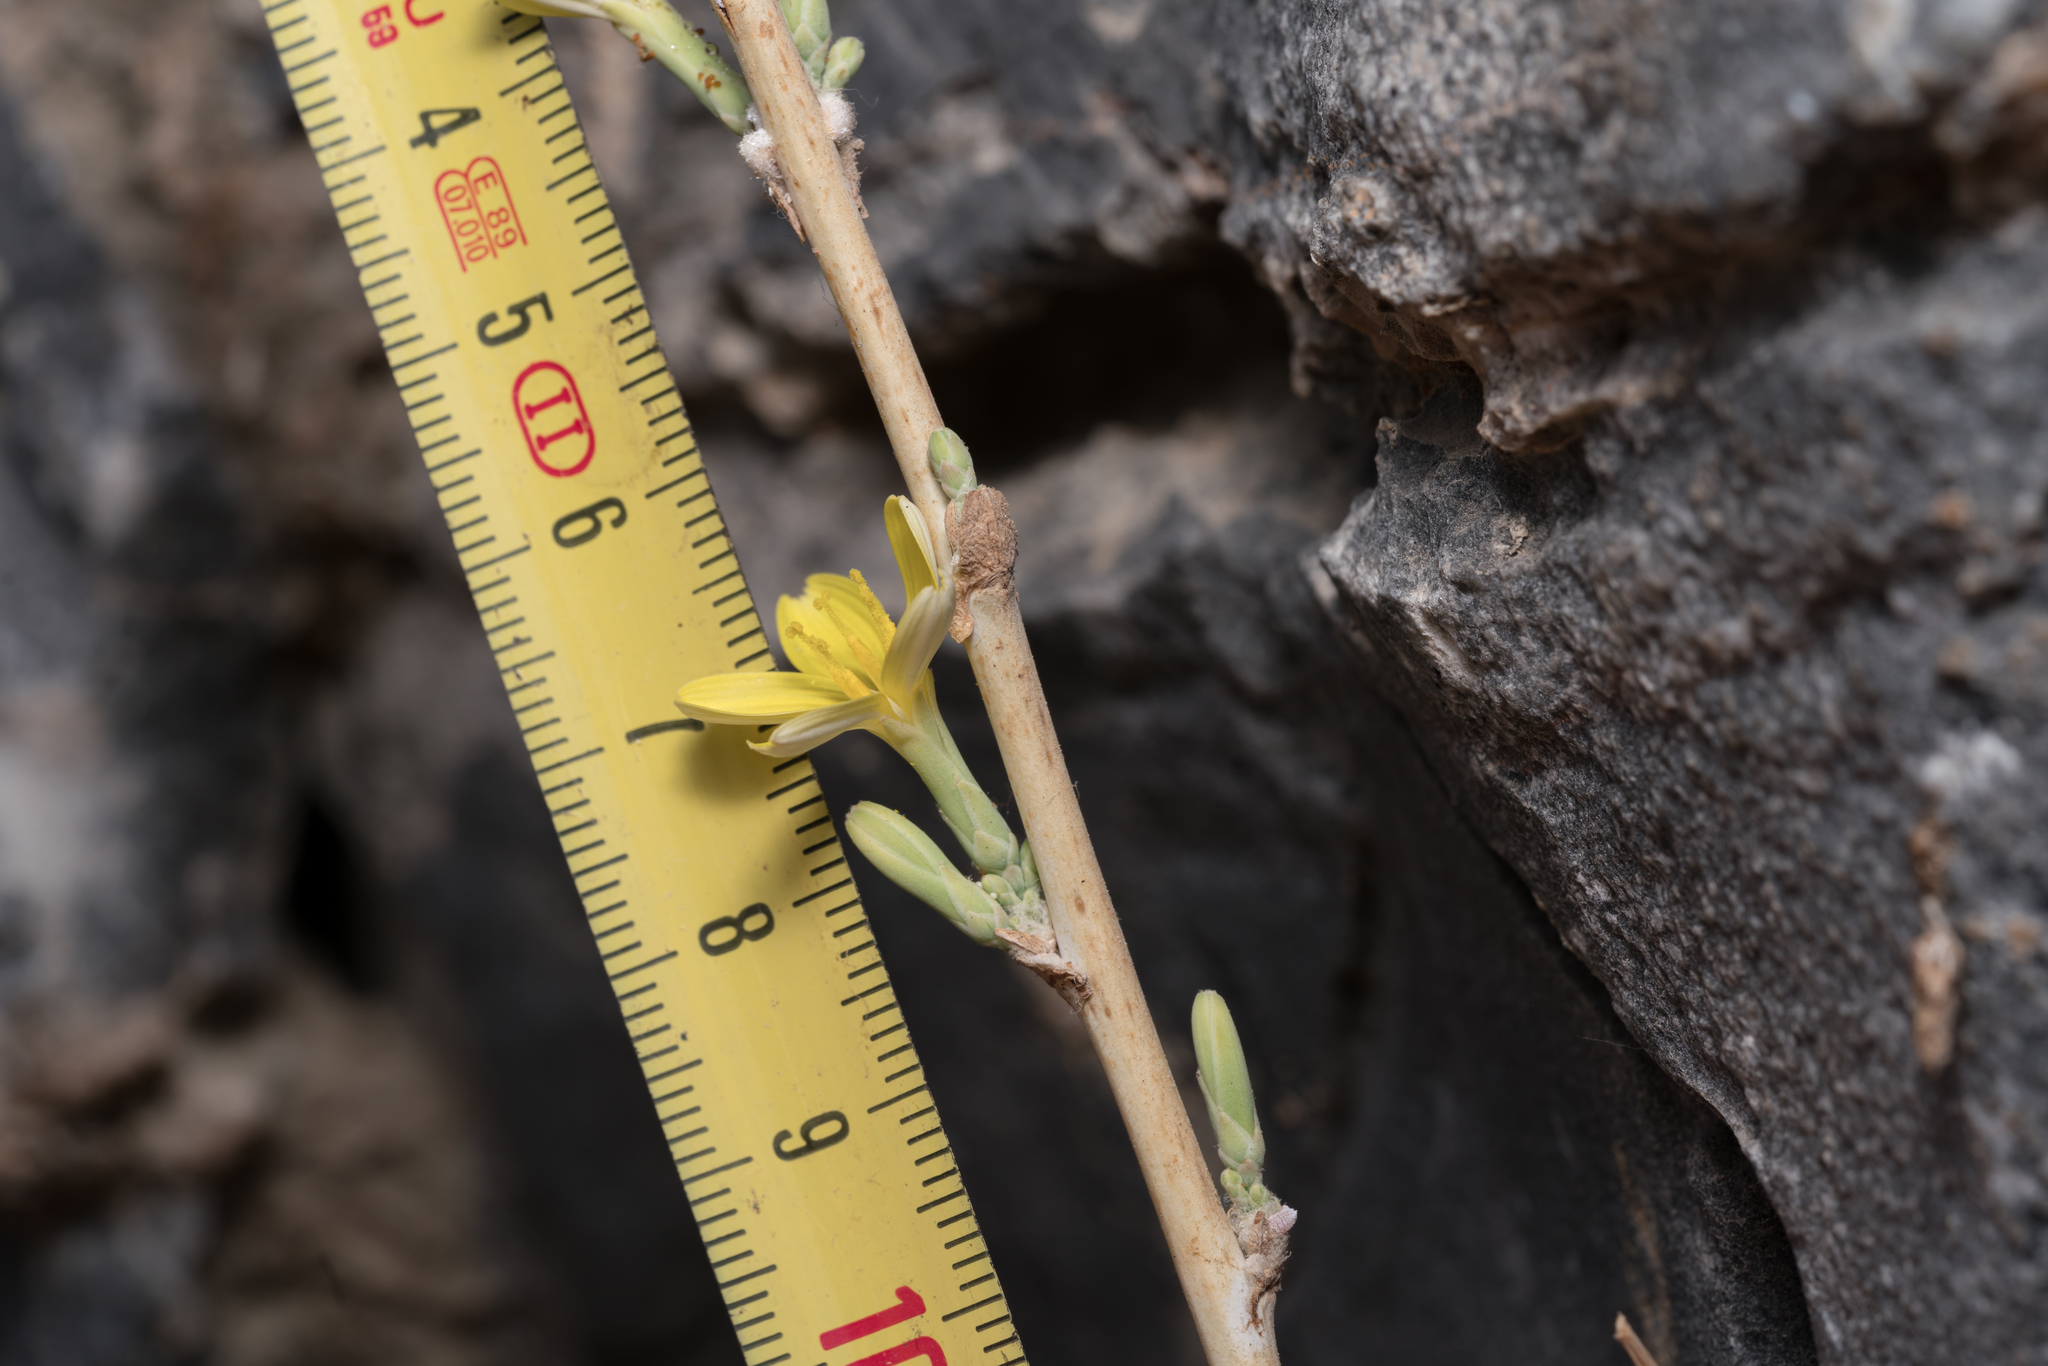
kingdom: Plantae
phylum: Tracheophyta
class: Magnoliopsida
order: Asterales
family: Asteraceae
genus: Lactuca
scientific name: Lactuca acanthifolia
